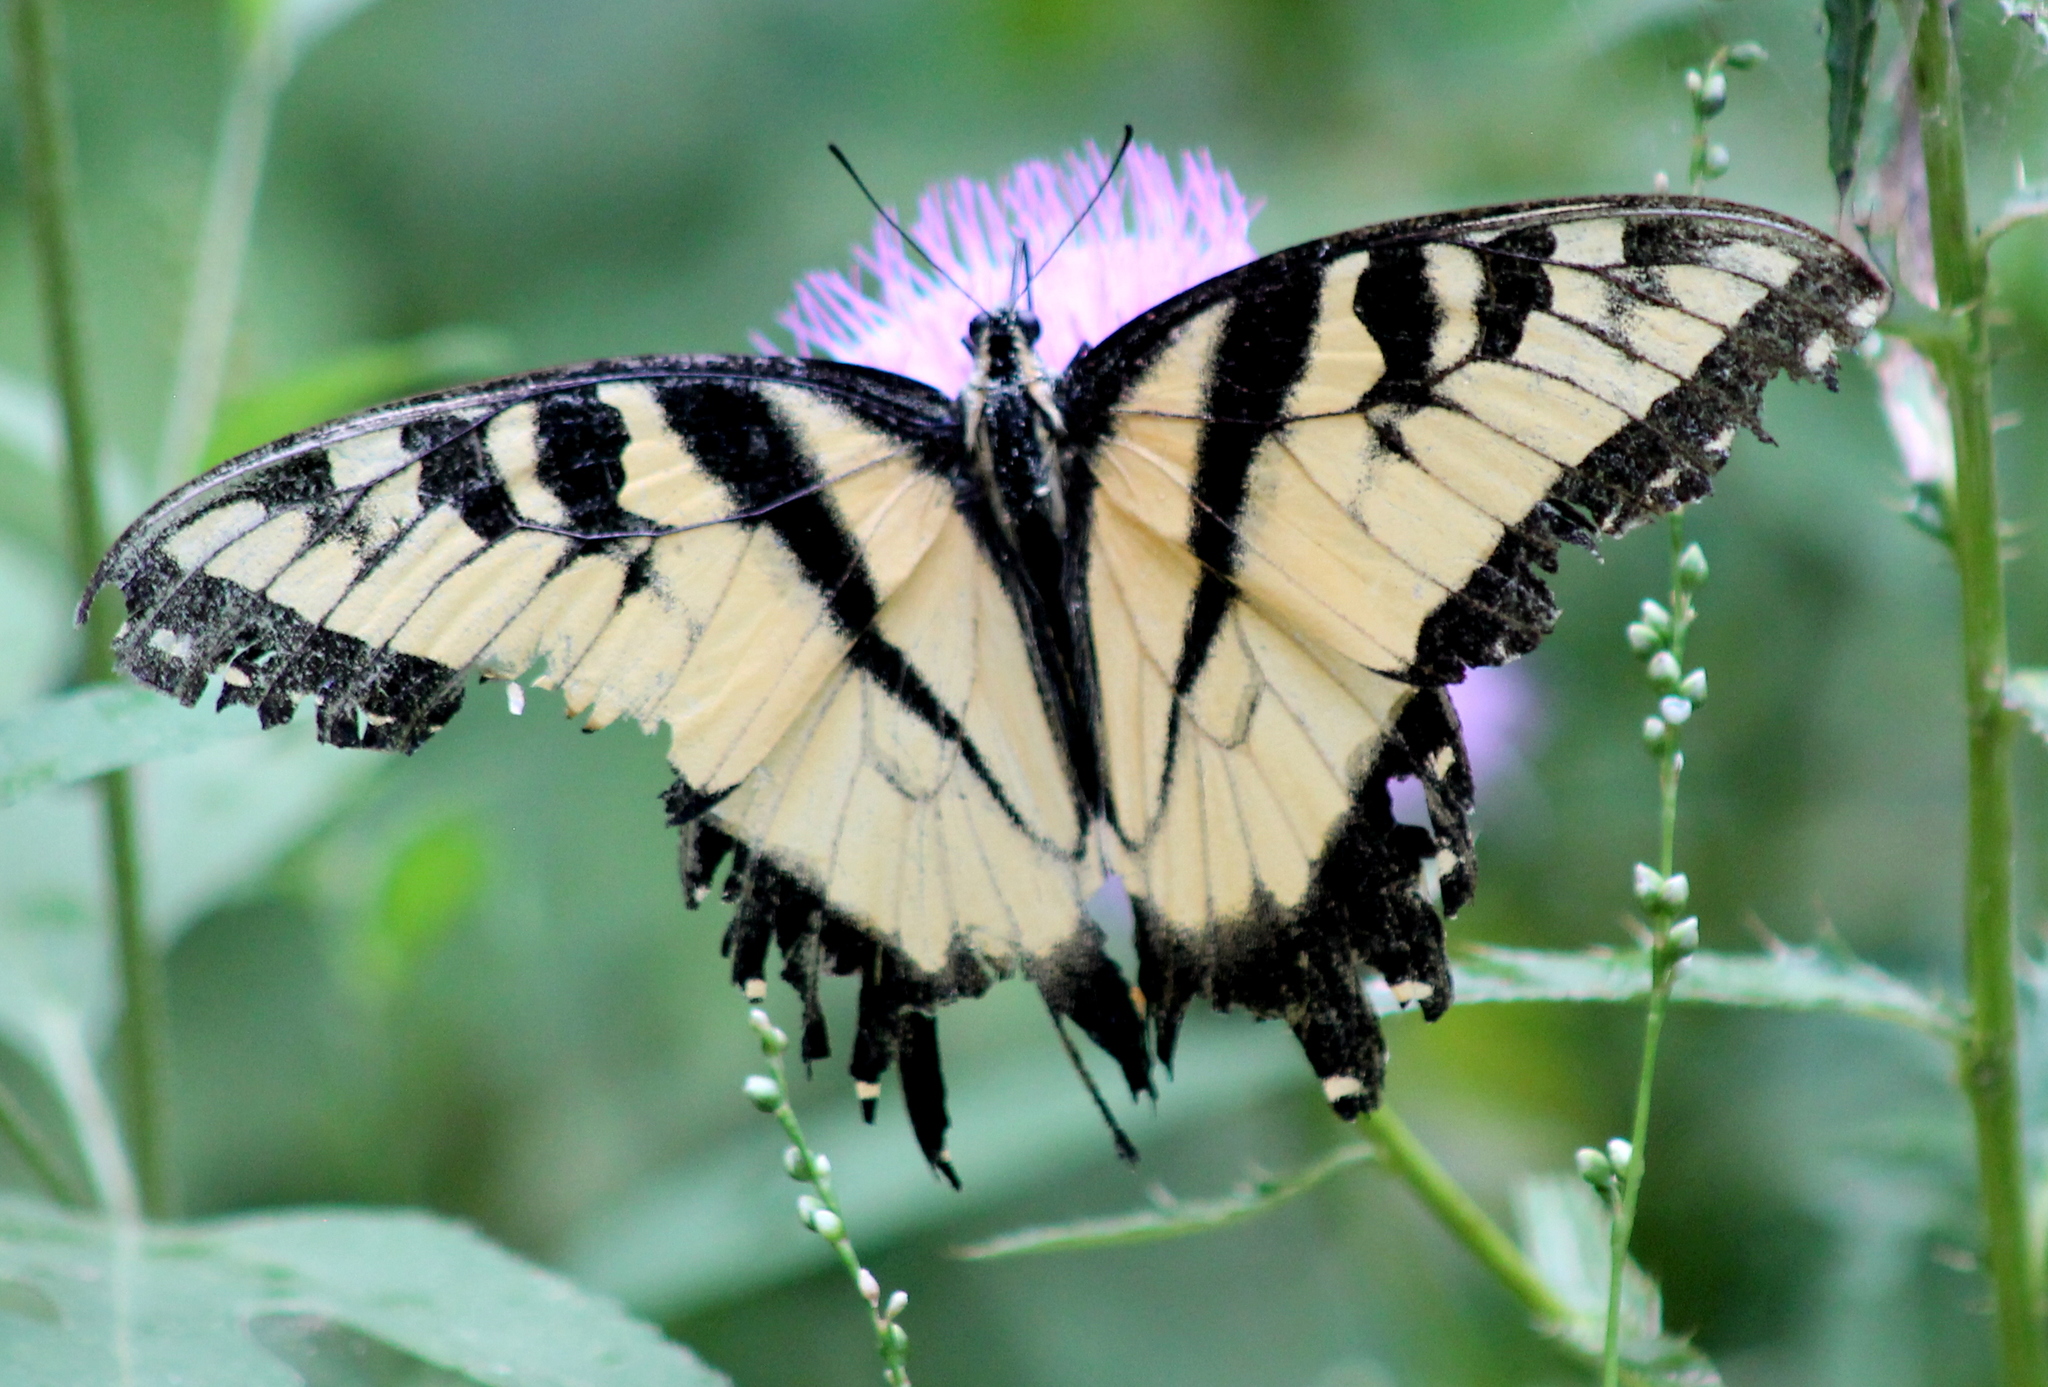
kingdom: Animalia
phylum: Arthropoda
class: Insecta
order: Lepidoptera
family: Papilionidae
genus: Papilio
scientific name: Papilio glaucus
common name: Tiger swallowtail
